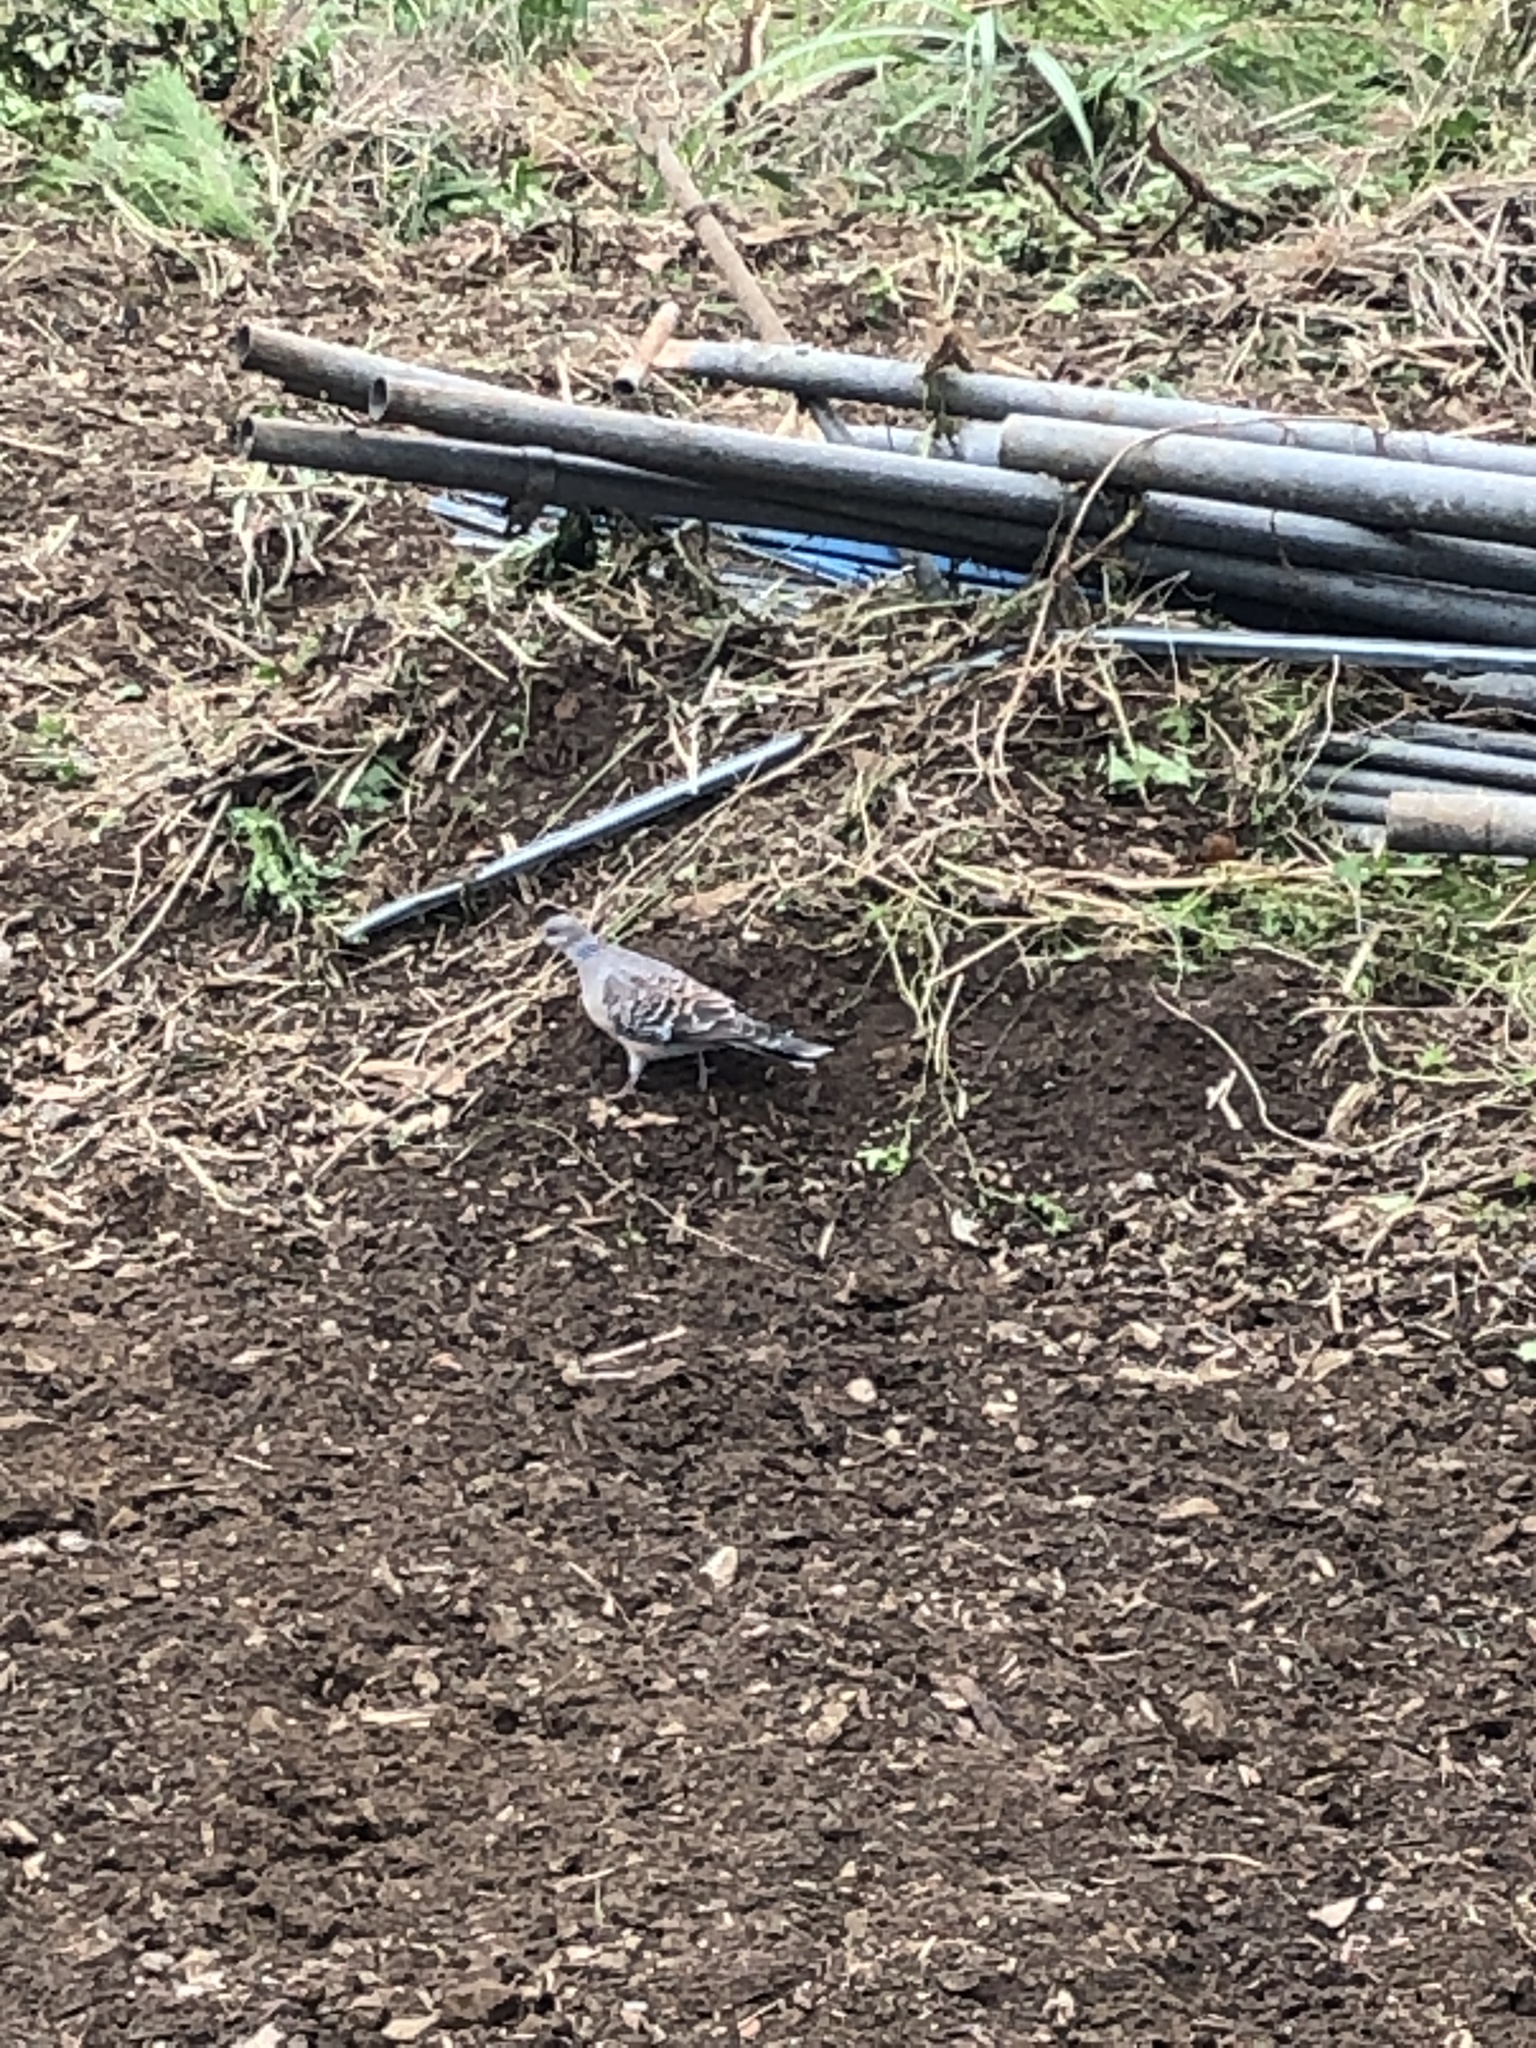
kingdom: Animalia
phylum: Chordata
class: Aves
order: Columbiformes
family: Columbidae
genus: Streptopelia
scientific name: Streptopelia orientalis
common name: Oriental turtle dove
